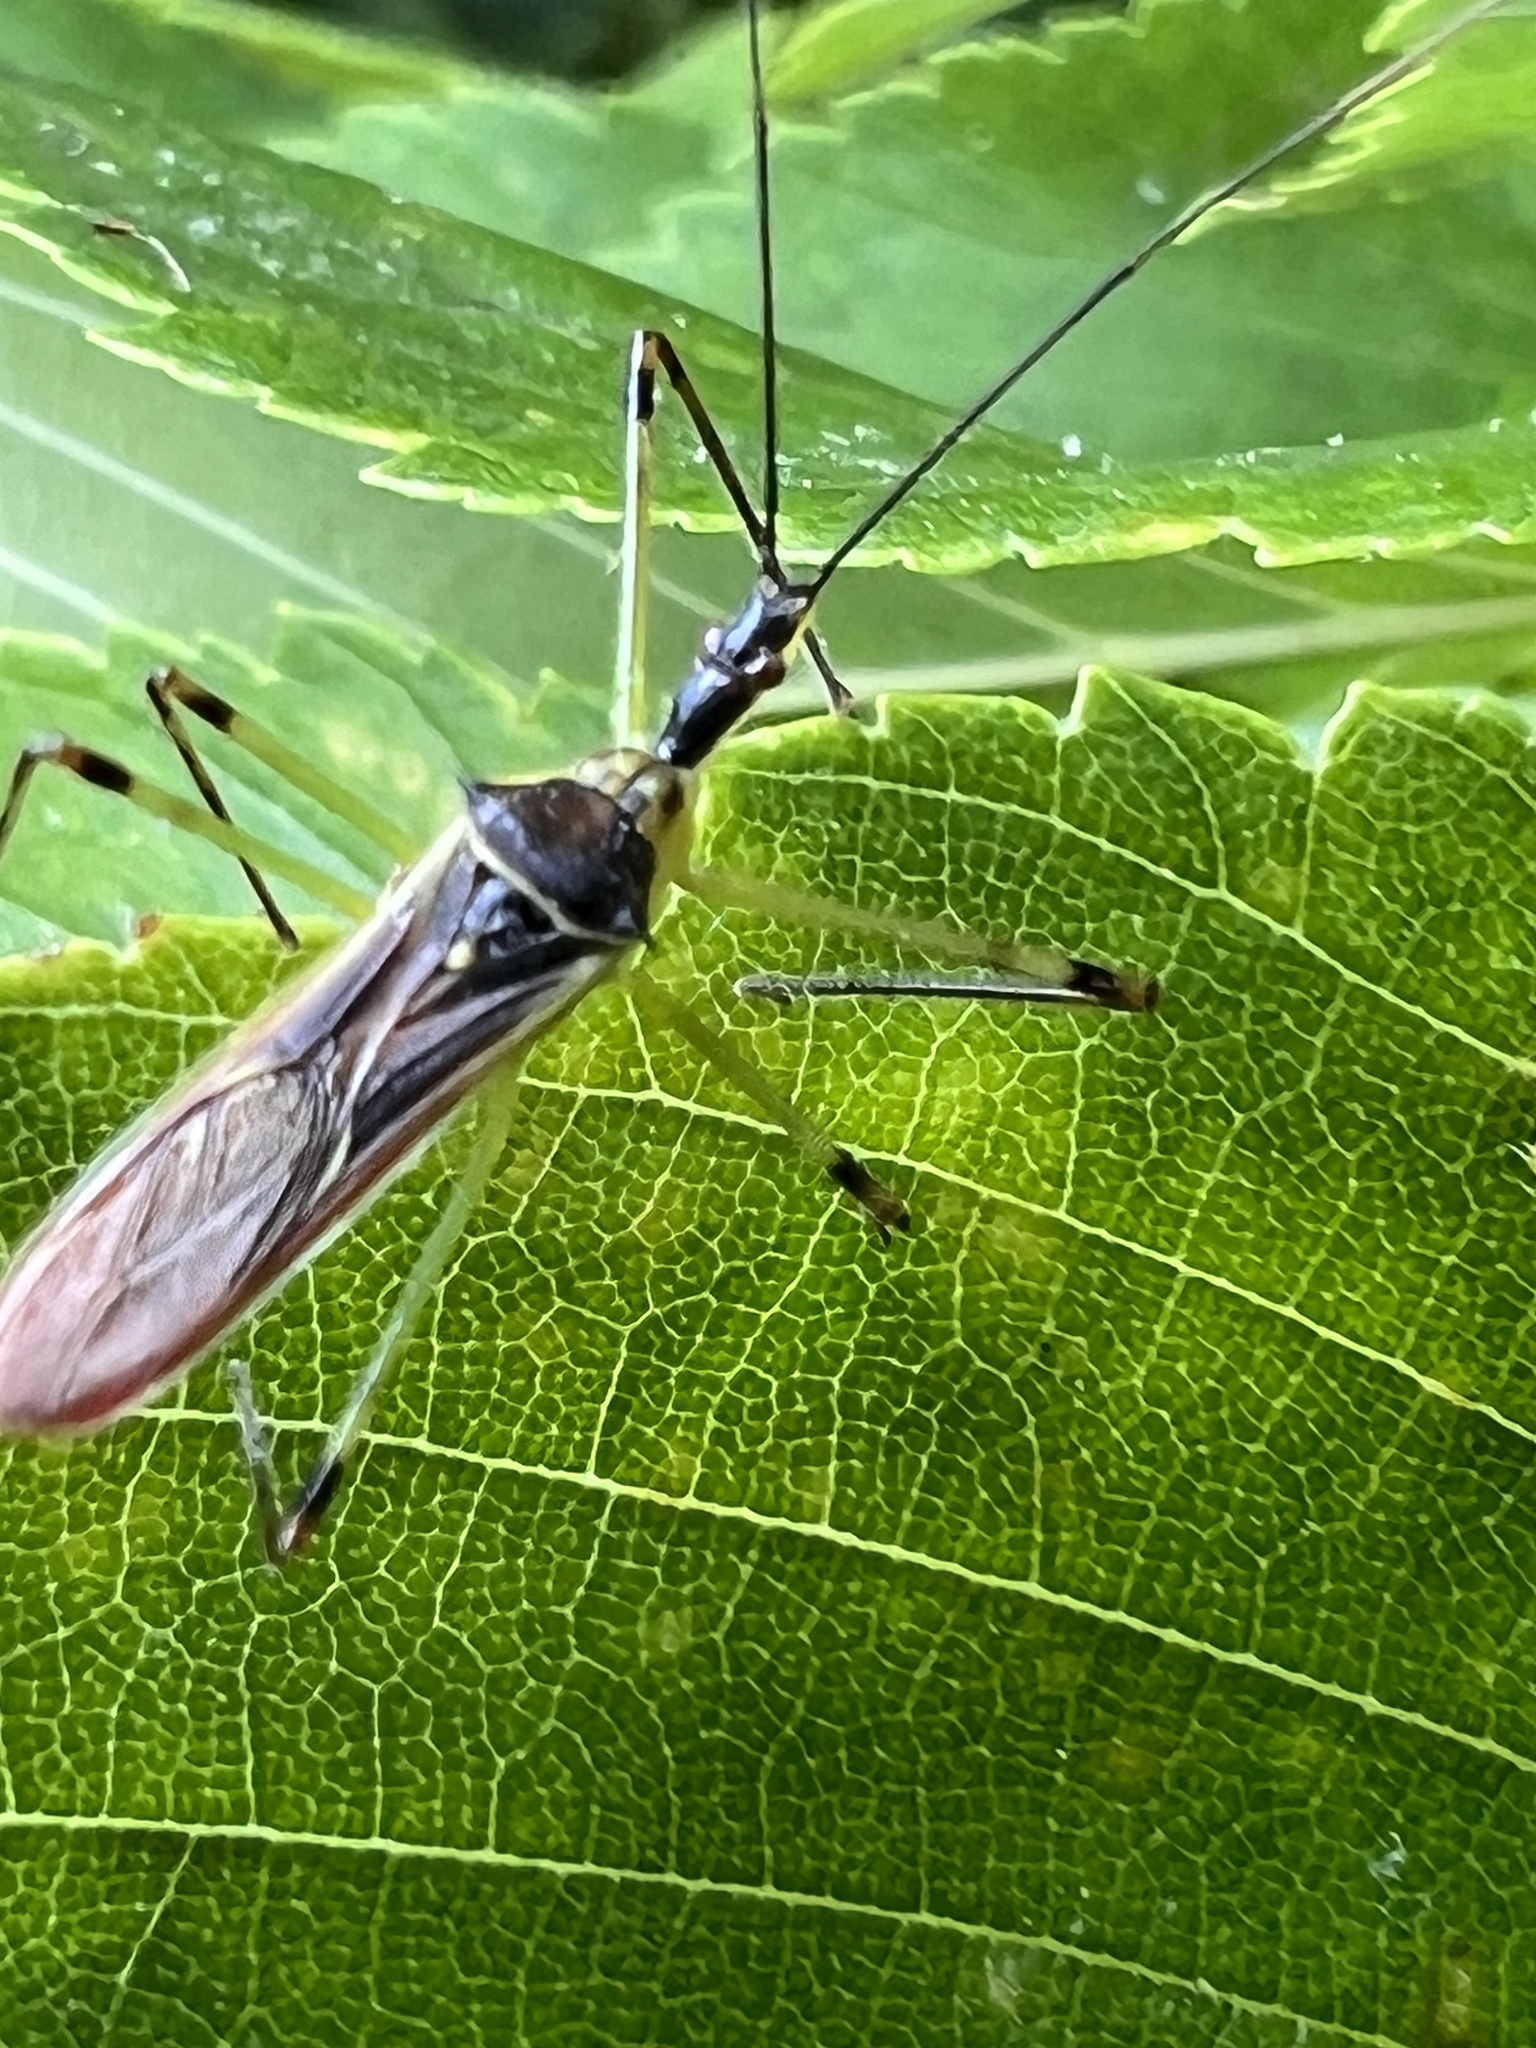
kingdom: Animalia
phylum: Arthropoda
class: Insecta
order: Hemiptera
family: Reduviidae
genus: Zelus
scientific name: Zelus luridus
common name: Pale green assassin bug
